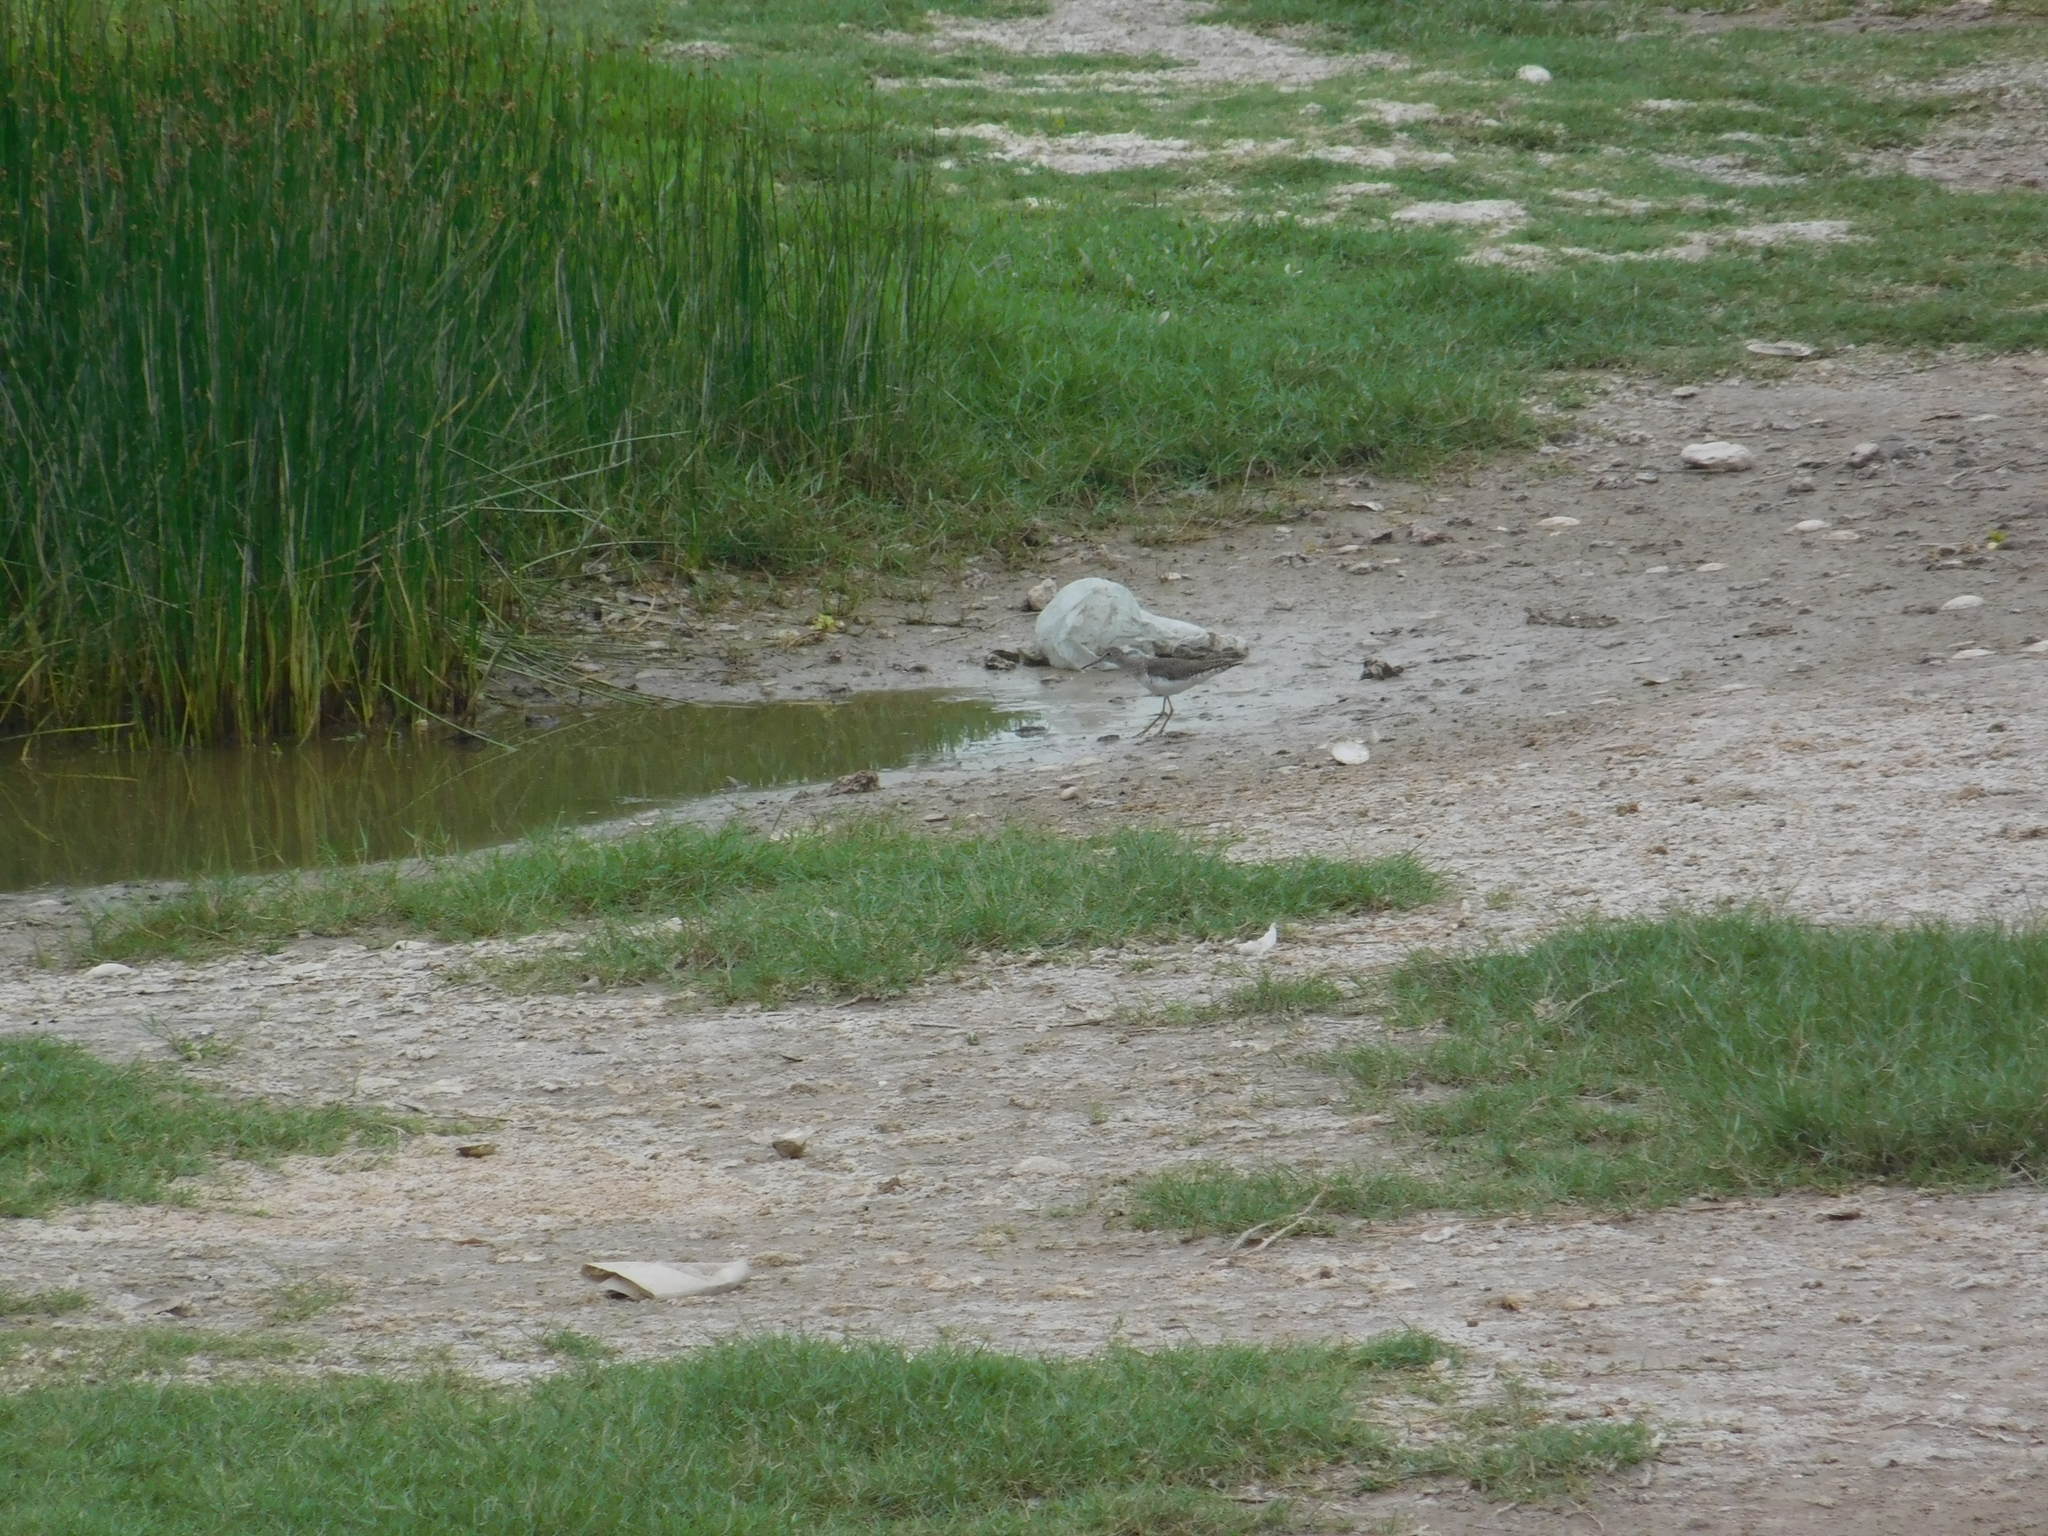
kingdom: Animalia
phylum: Chordata
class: Aves
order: Charadriiformes
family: Scolopacidae
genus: Tringa
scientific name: Tringa solitaria
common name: Solitary sandpiper
